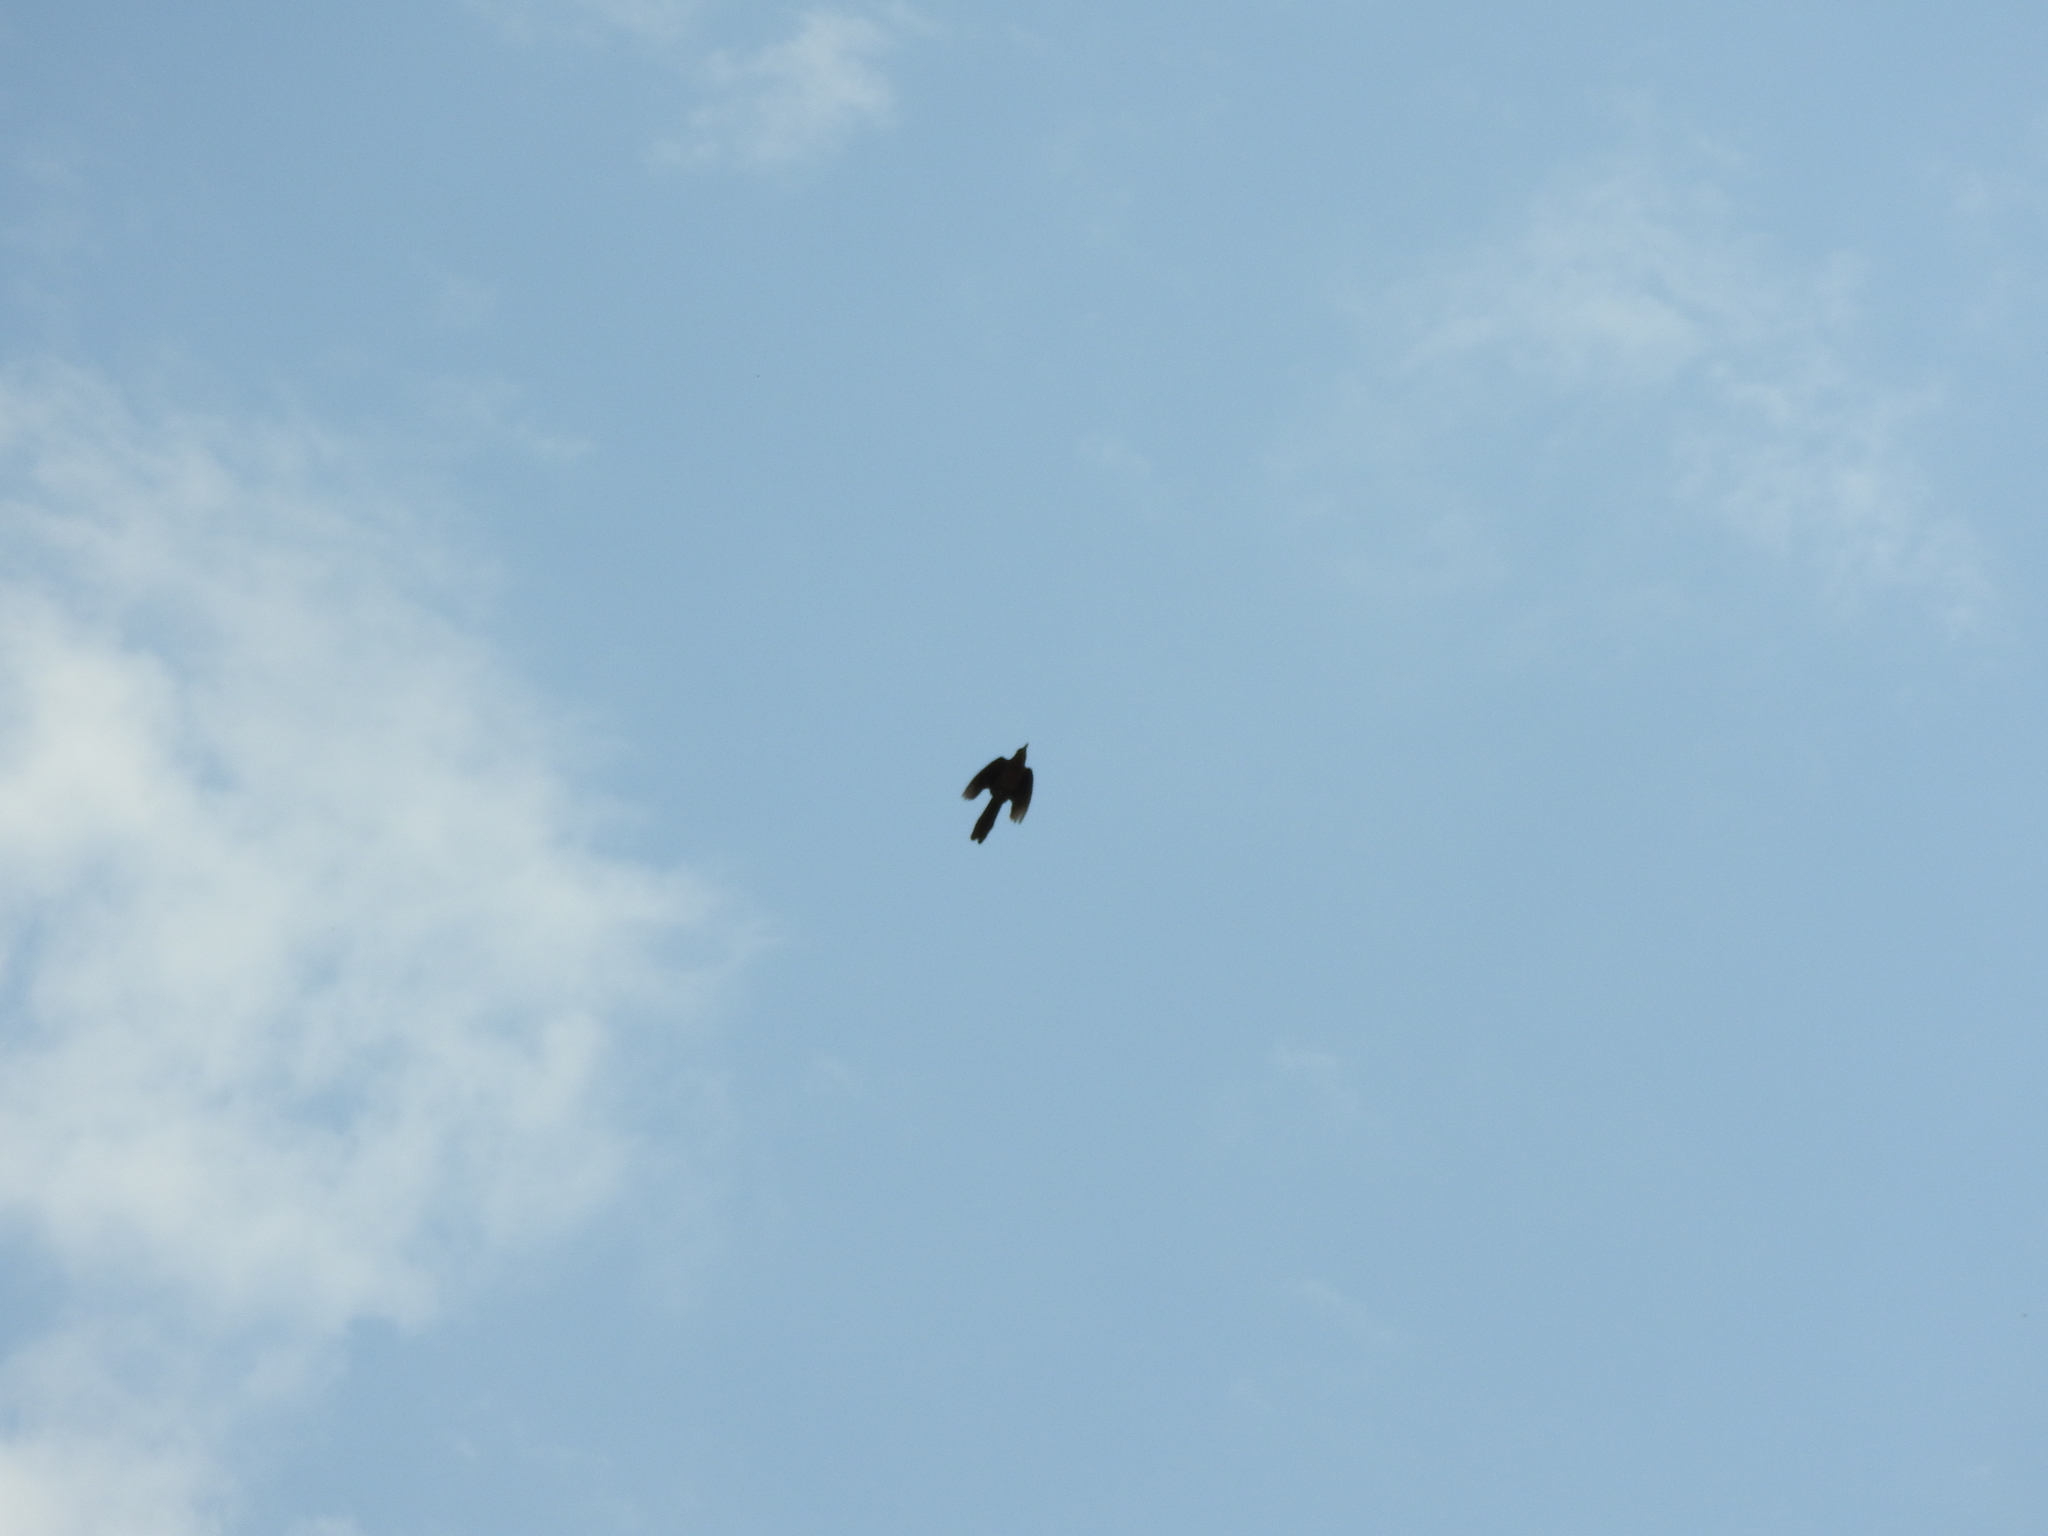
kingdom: Animalia
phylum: Chordata
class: Aves
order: Passeriformes
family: Icteridae
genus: Quiscalus
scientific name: Quiscalus mexicanus
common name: Great-tailed grackle
